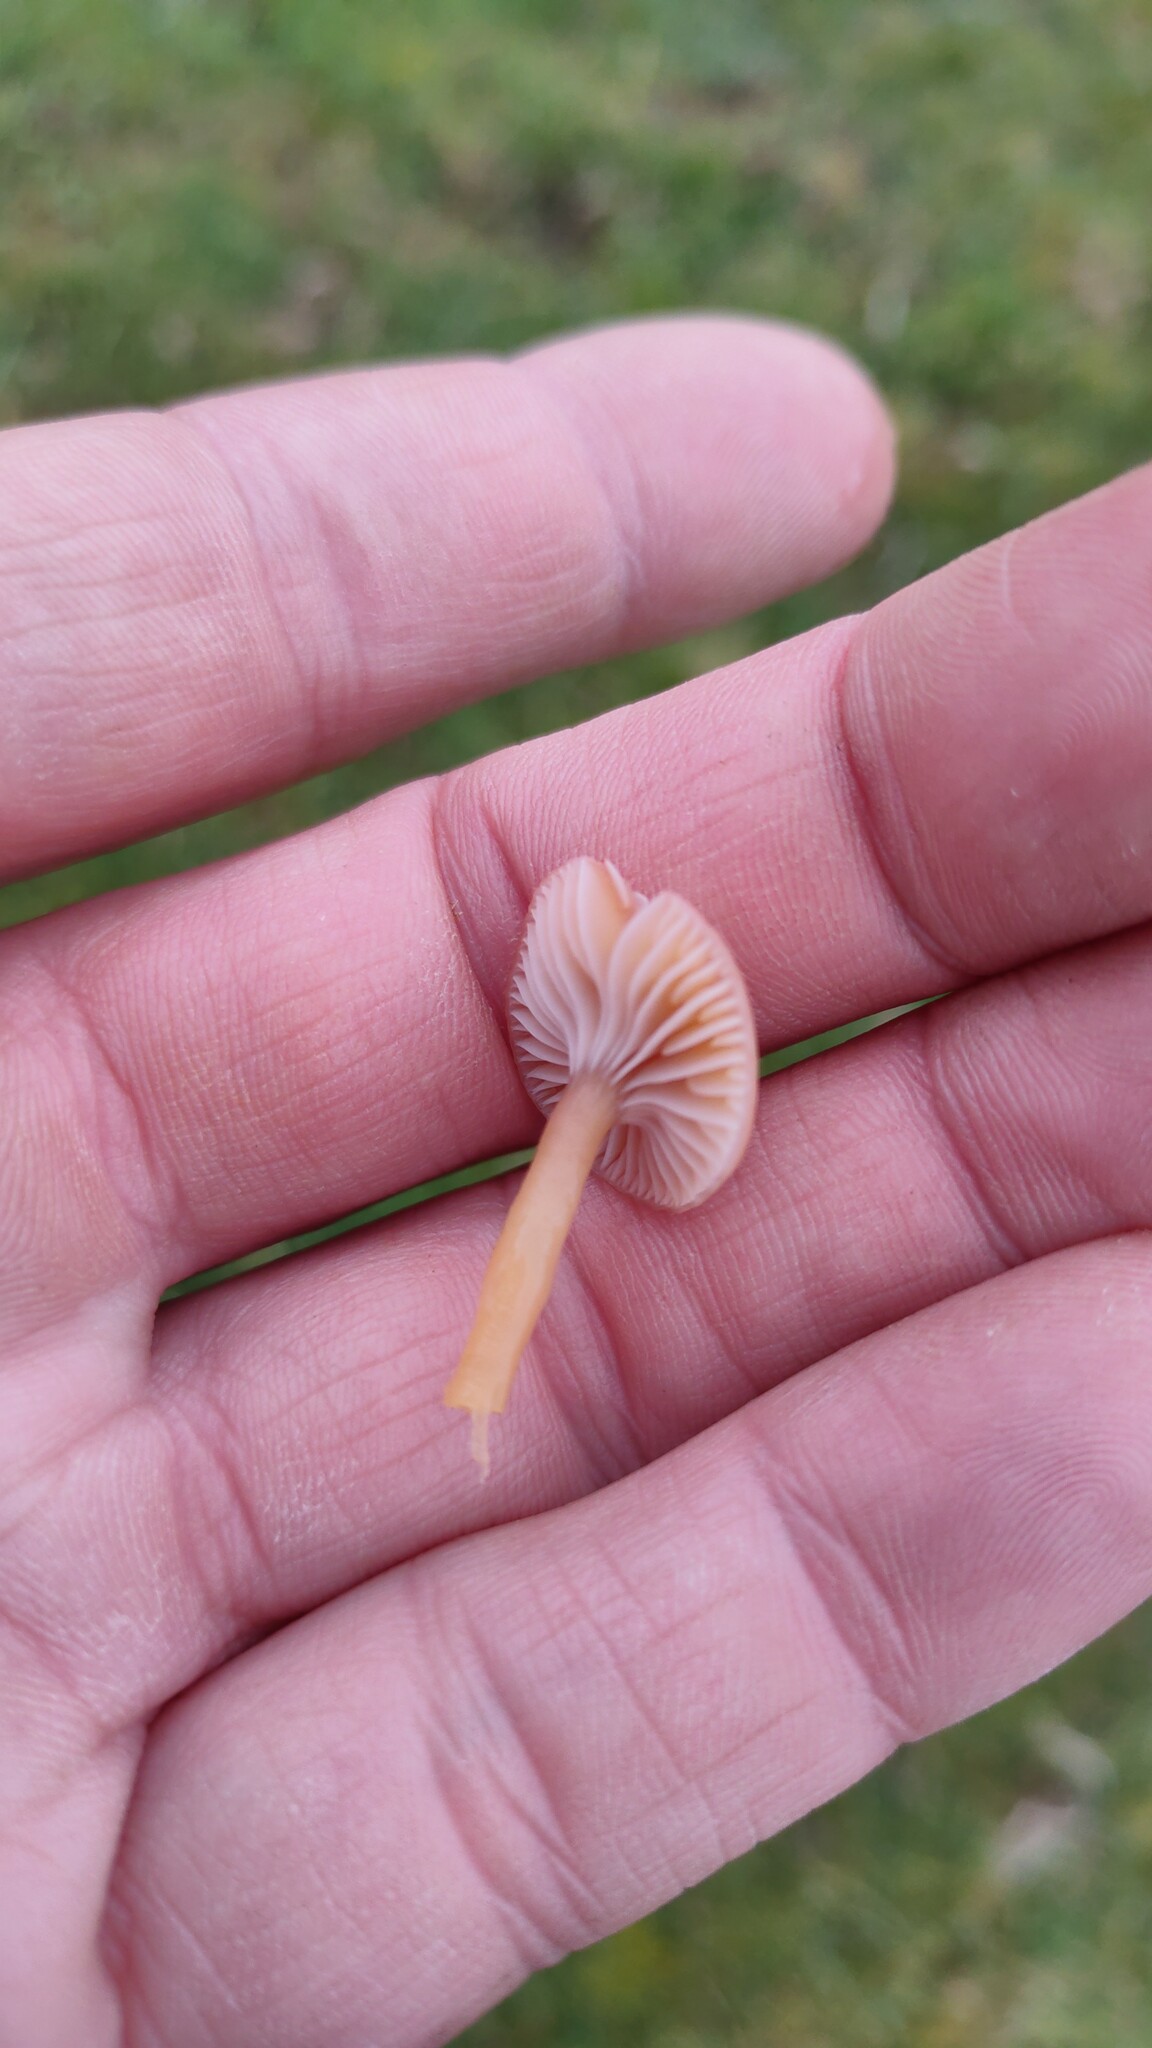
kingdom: Fungi
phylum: Basidiomycota
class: Agaricomycetes
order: Agaricales
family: Hygrophoraceae
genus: Gliophorus
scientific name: Gliophorus laetus
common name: Heath waxcap
